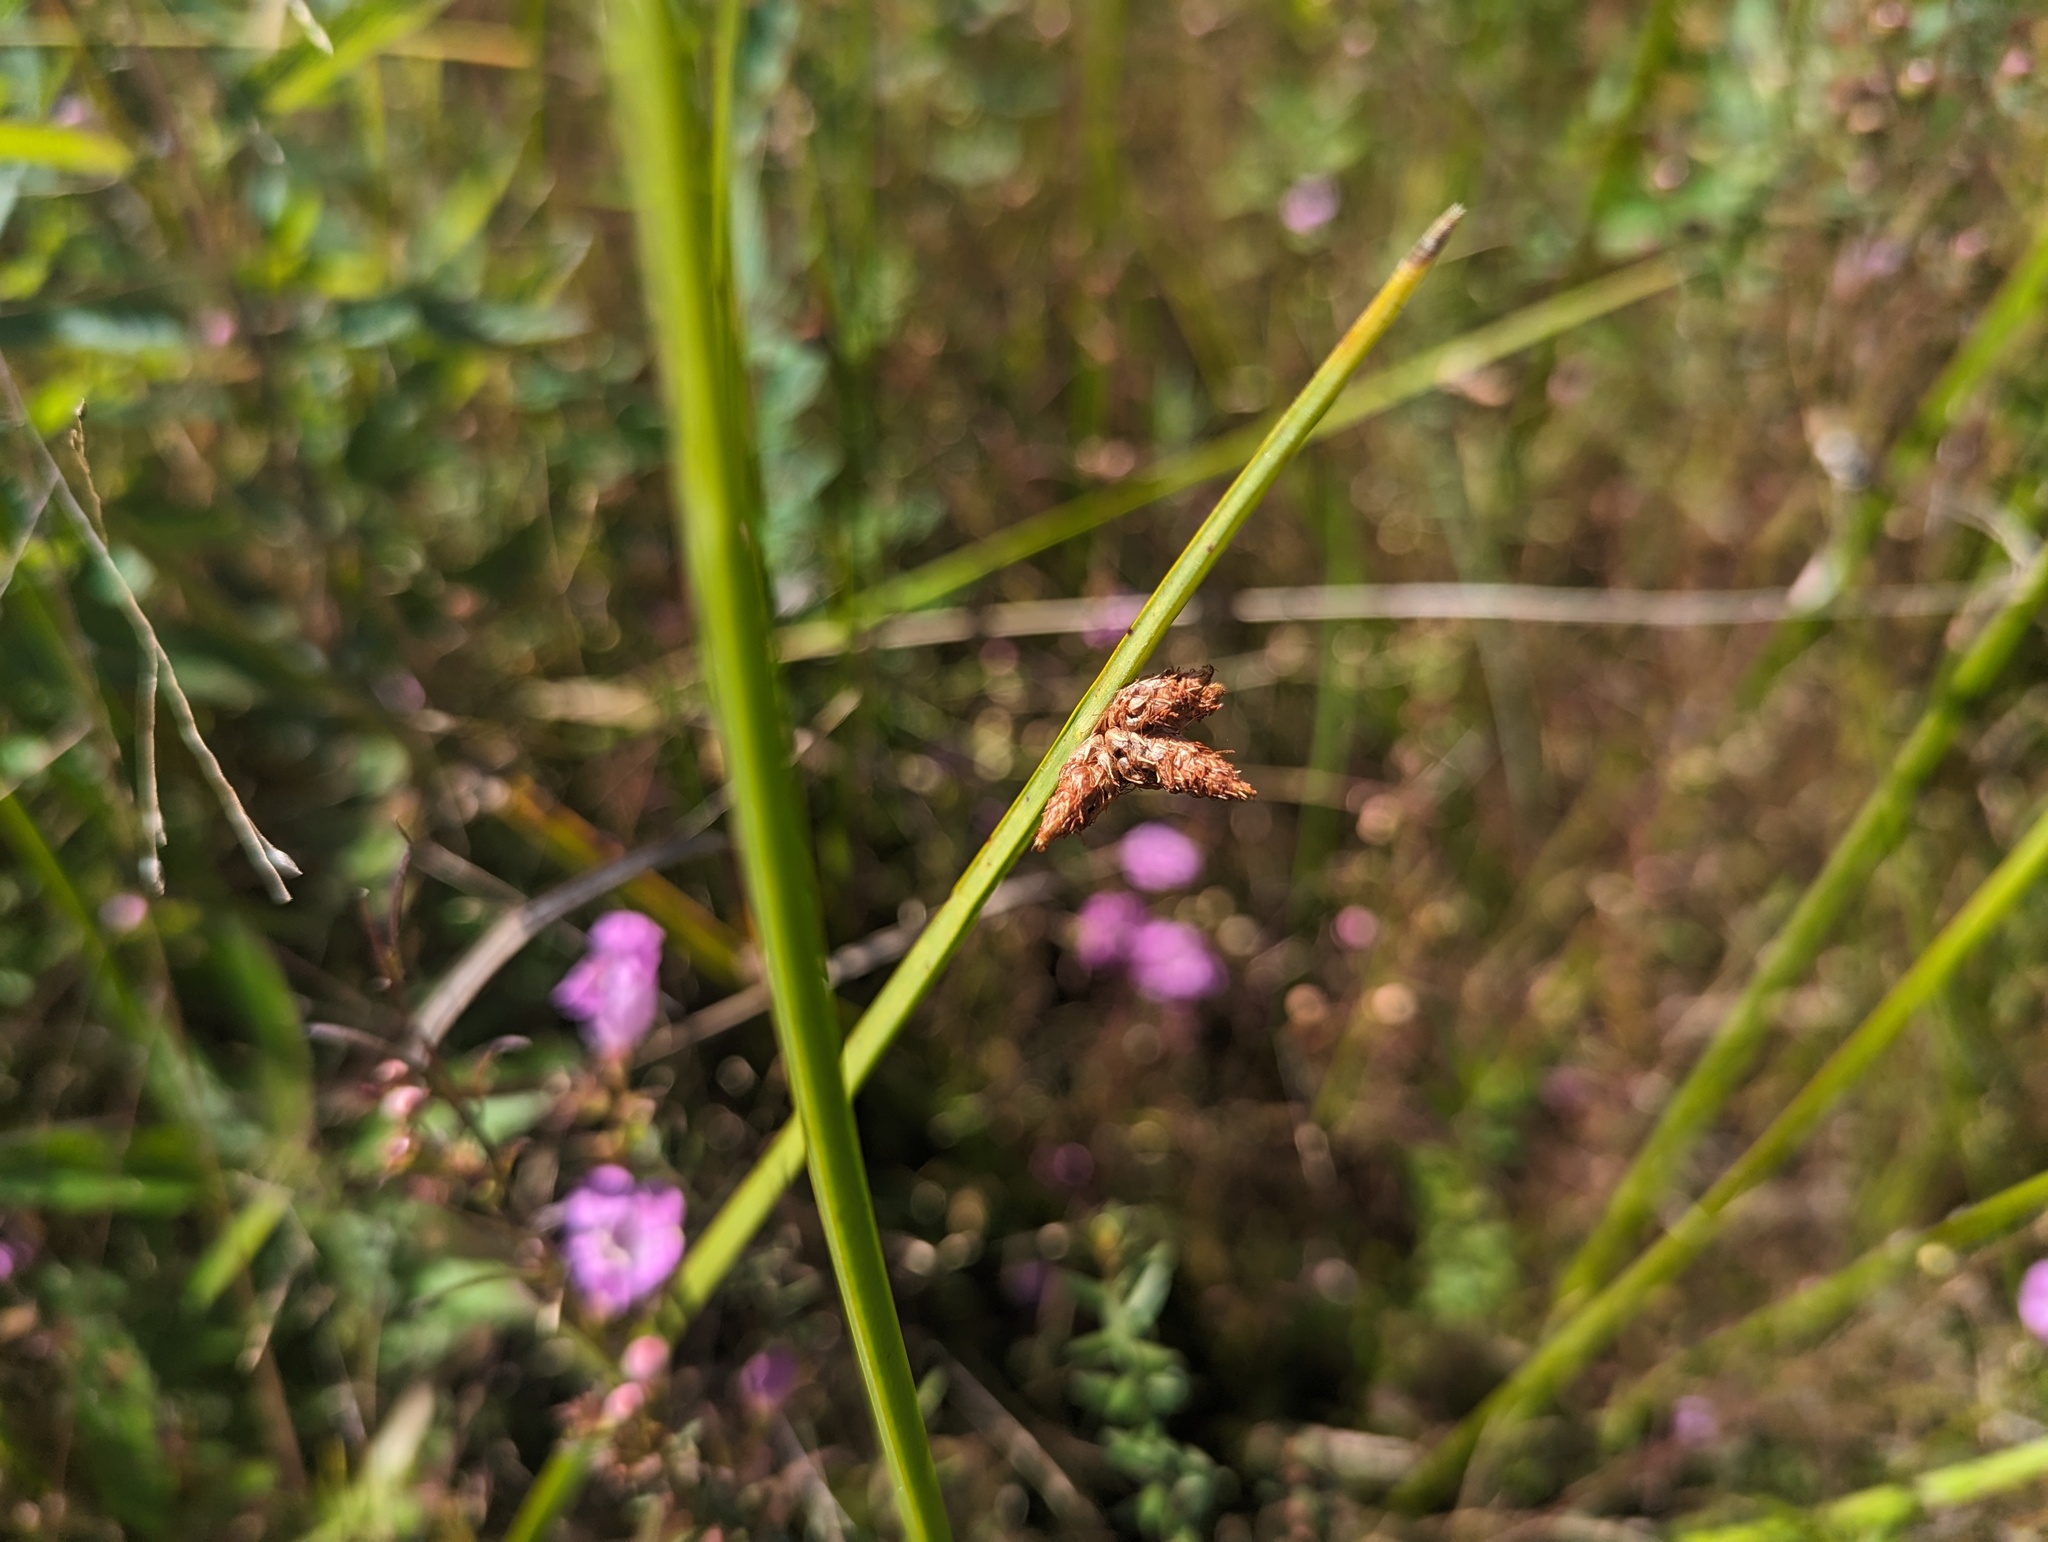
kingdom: Plantae
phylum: Tracheophyta
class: Liliopsida
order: Poales
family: Cyperaceae
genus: Schoenoplectus
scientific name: Schoenoplectus pungens
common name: Sharp club-rush
